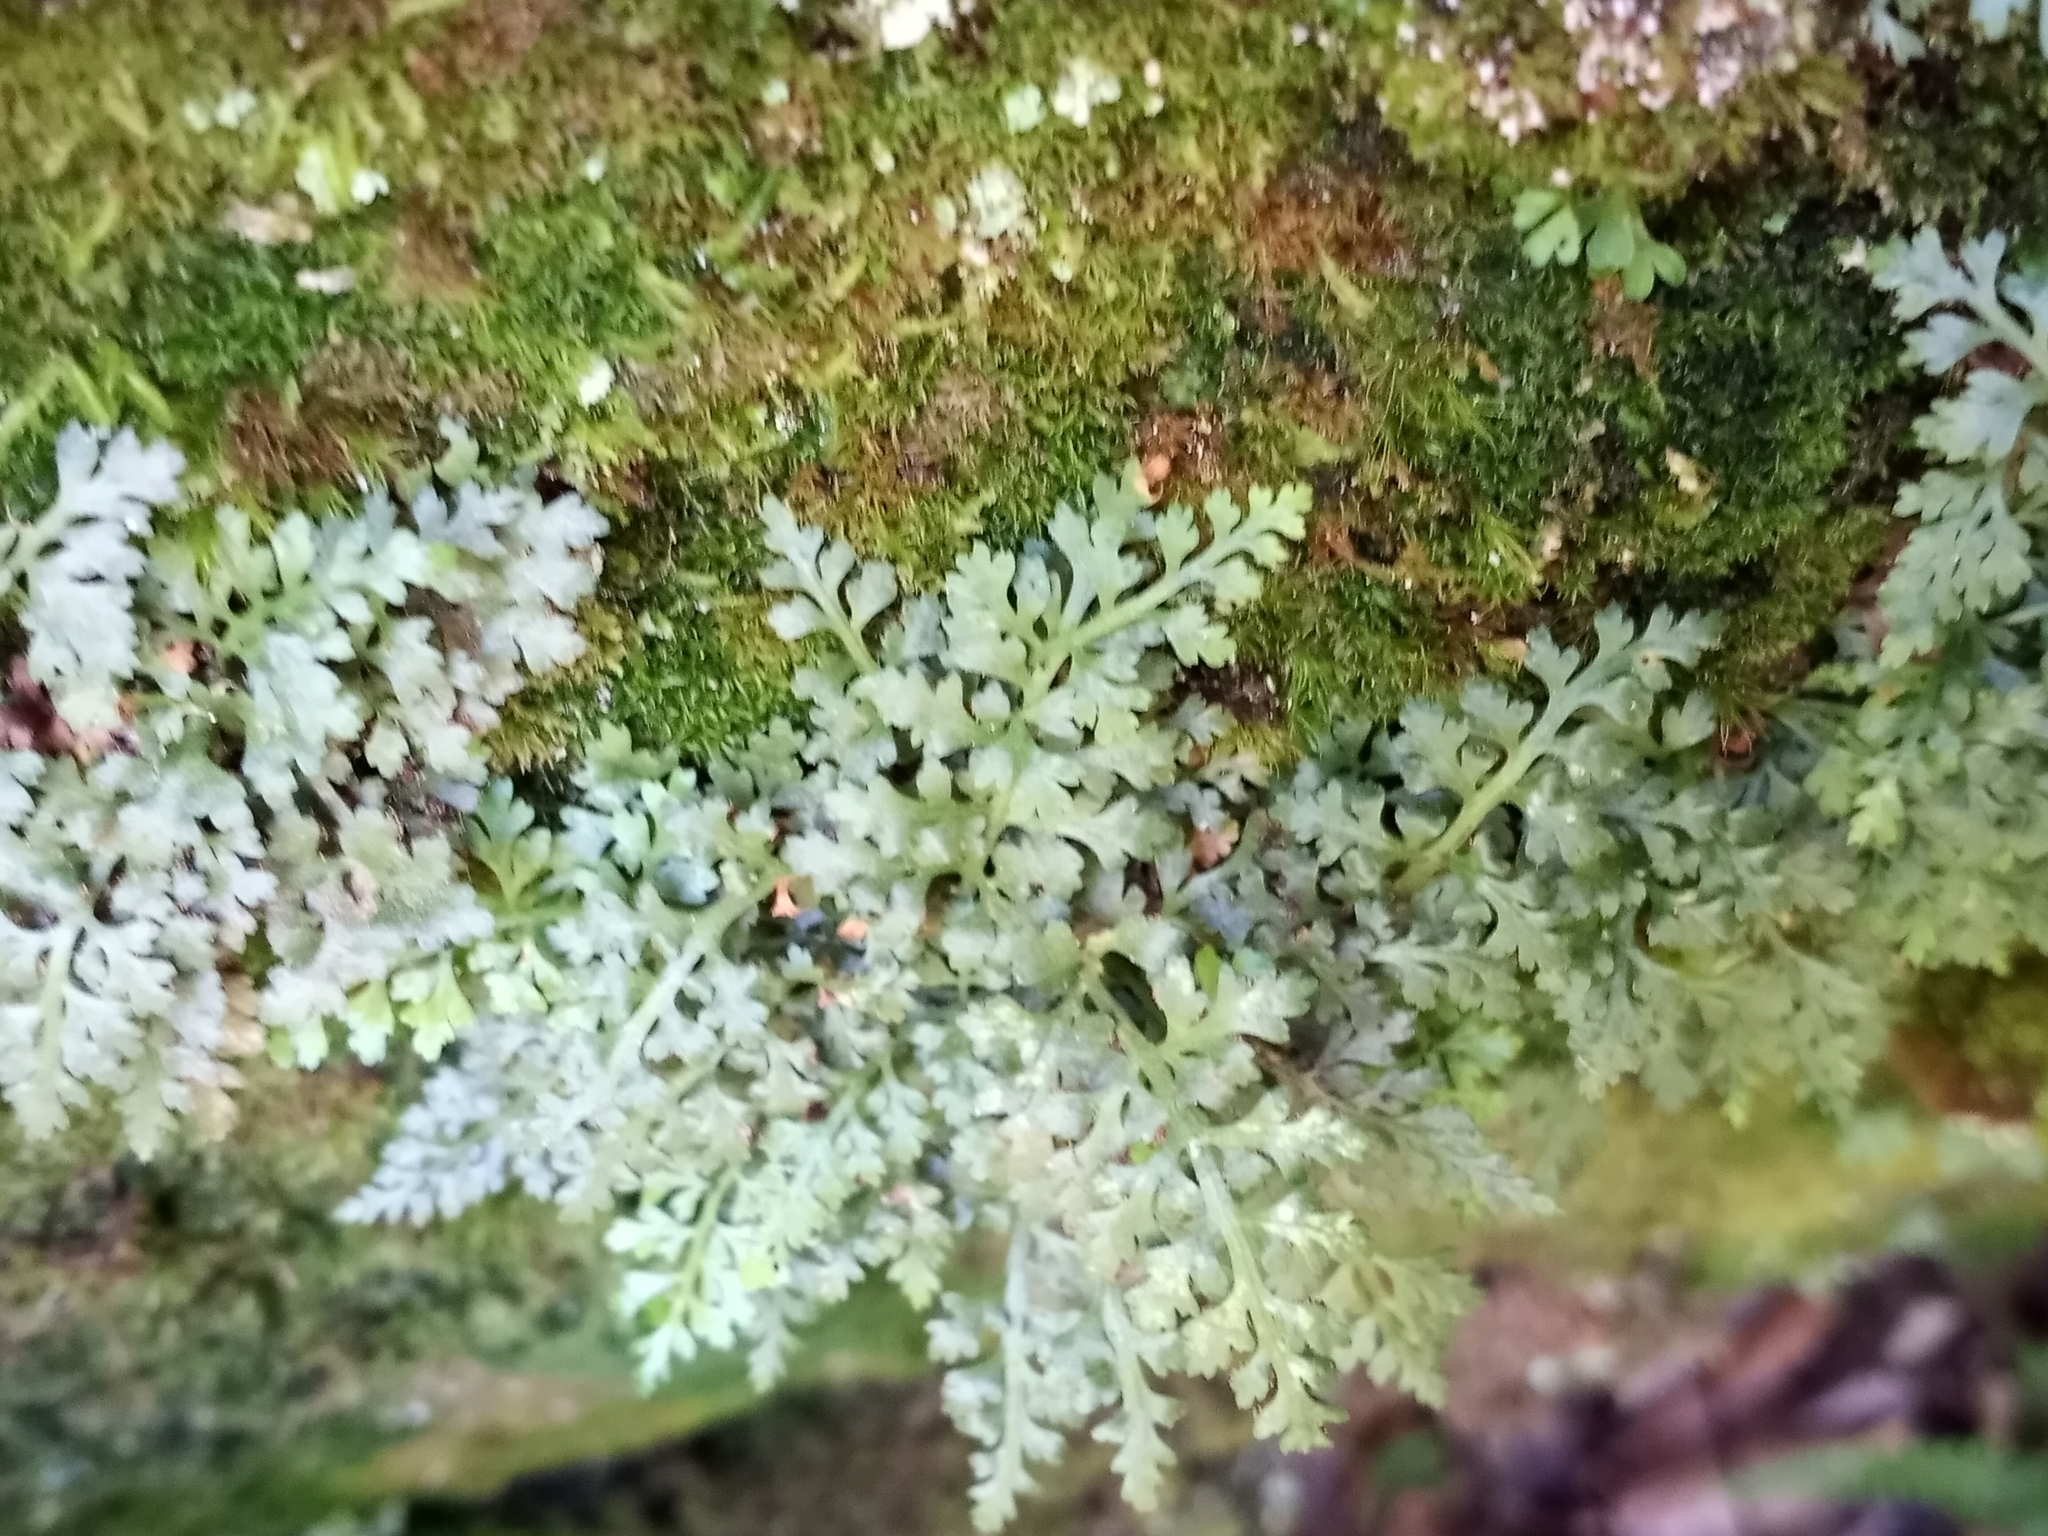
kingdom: Plantae
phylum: Tracheophyta
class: Polypodiopsida
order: Polypodiales
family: Aspleniaceae
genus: Asplenium
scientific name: Asplenium montanum
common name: Mountain spleenwort
